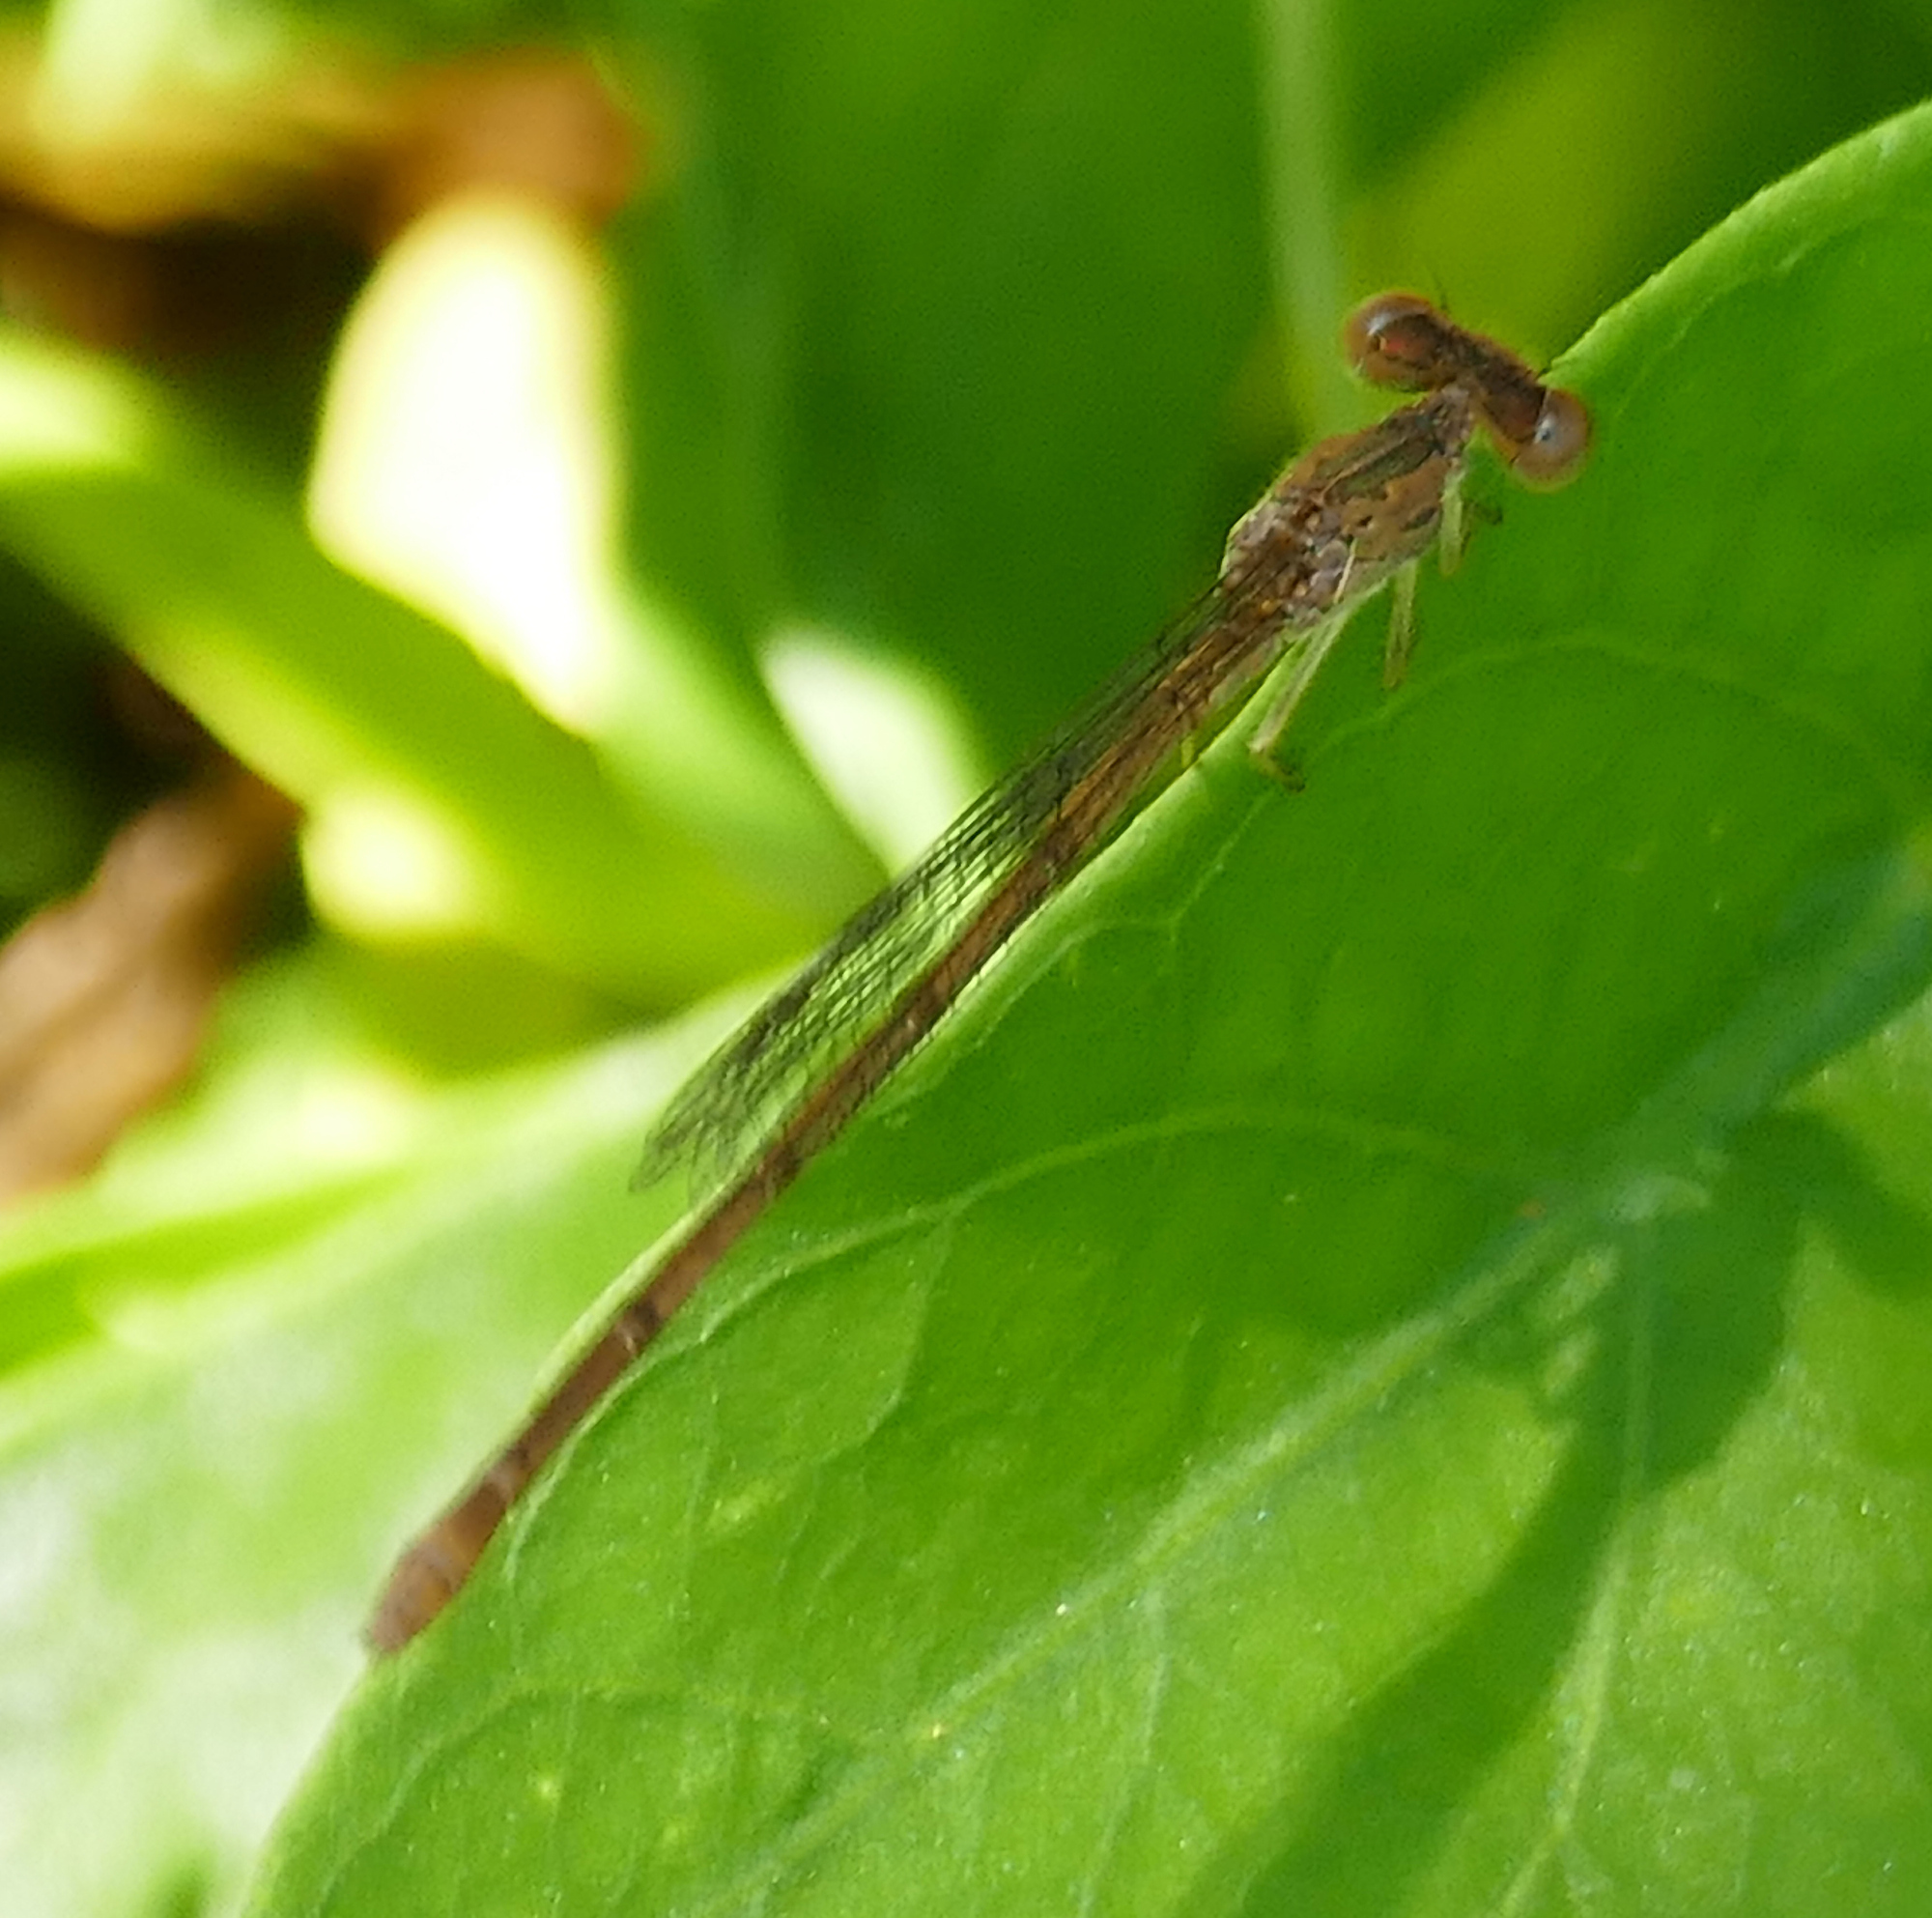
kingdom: Animalia
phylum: Arthropoda
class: Insecta
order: Odonata
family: Coenagrionidae
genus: Telebasis
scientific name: Telebasis salva
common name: Desert firetail
